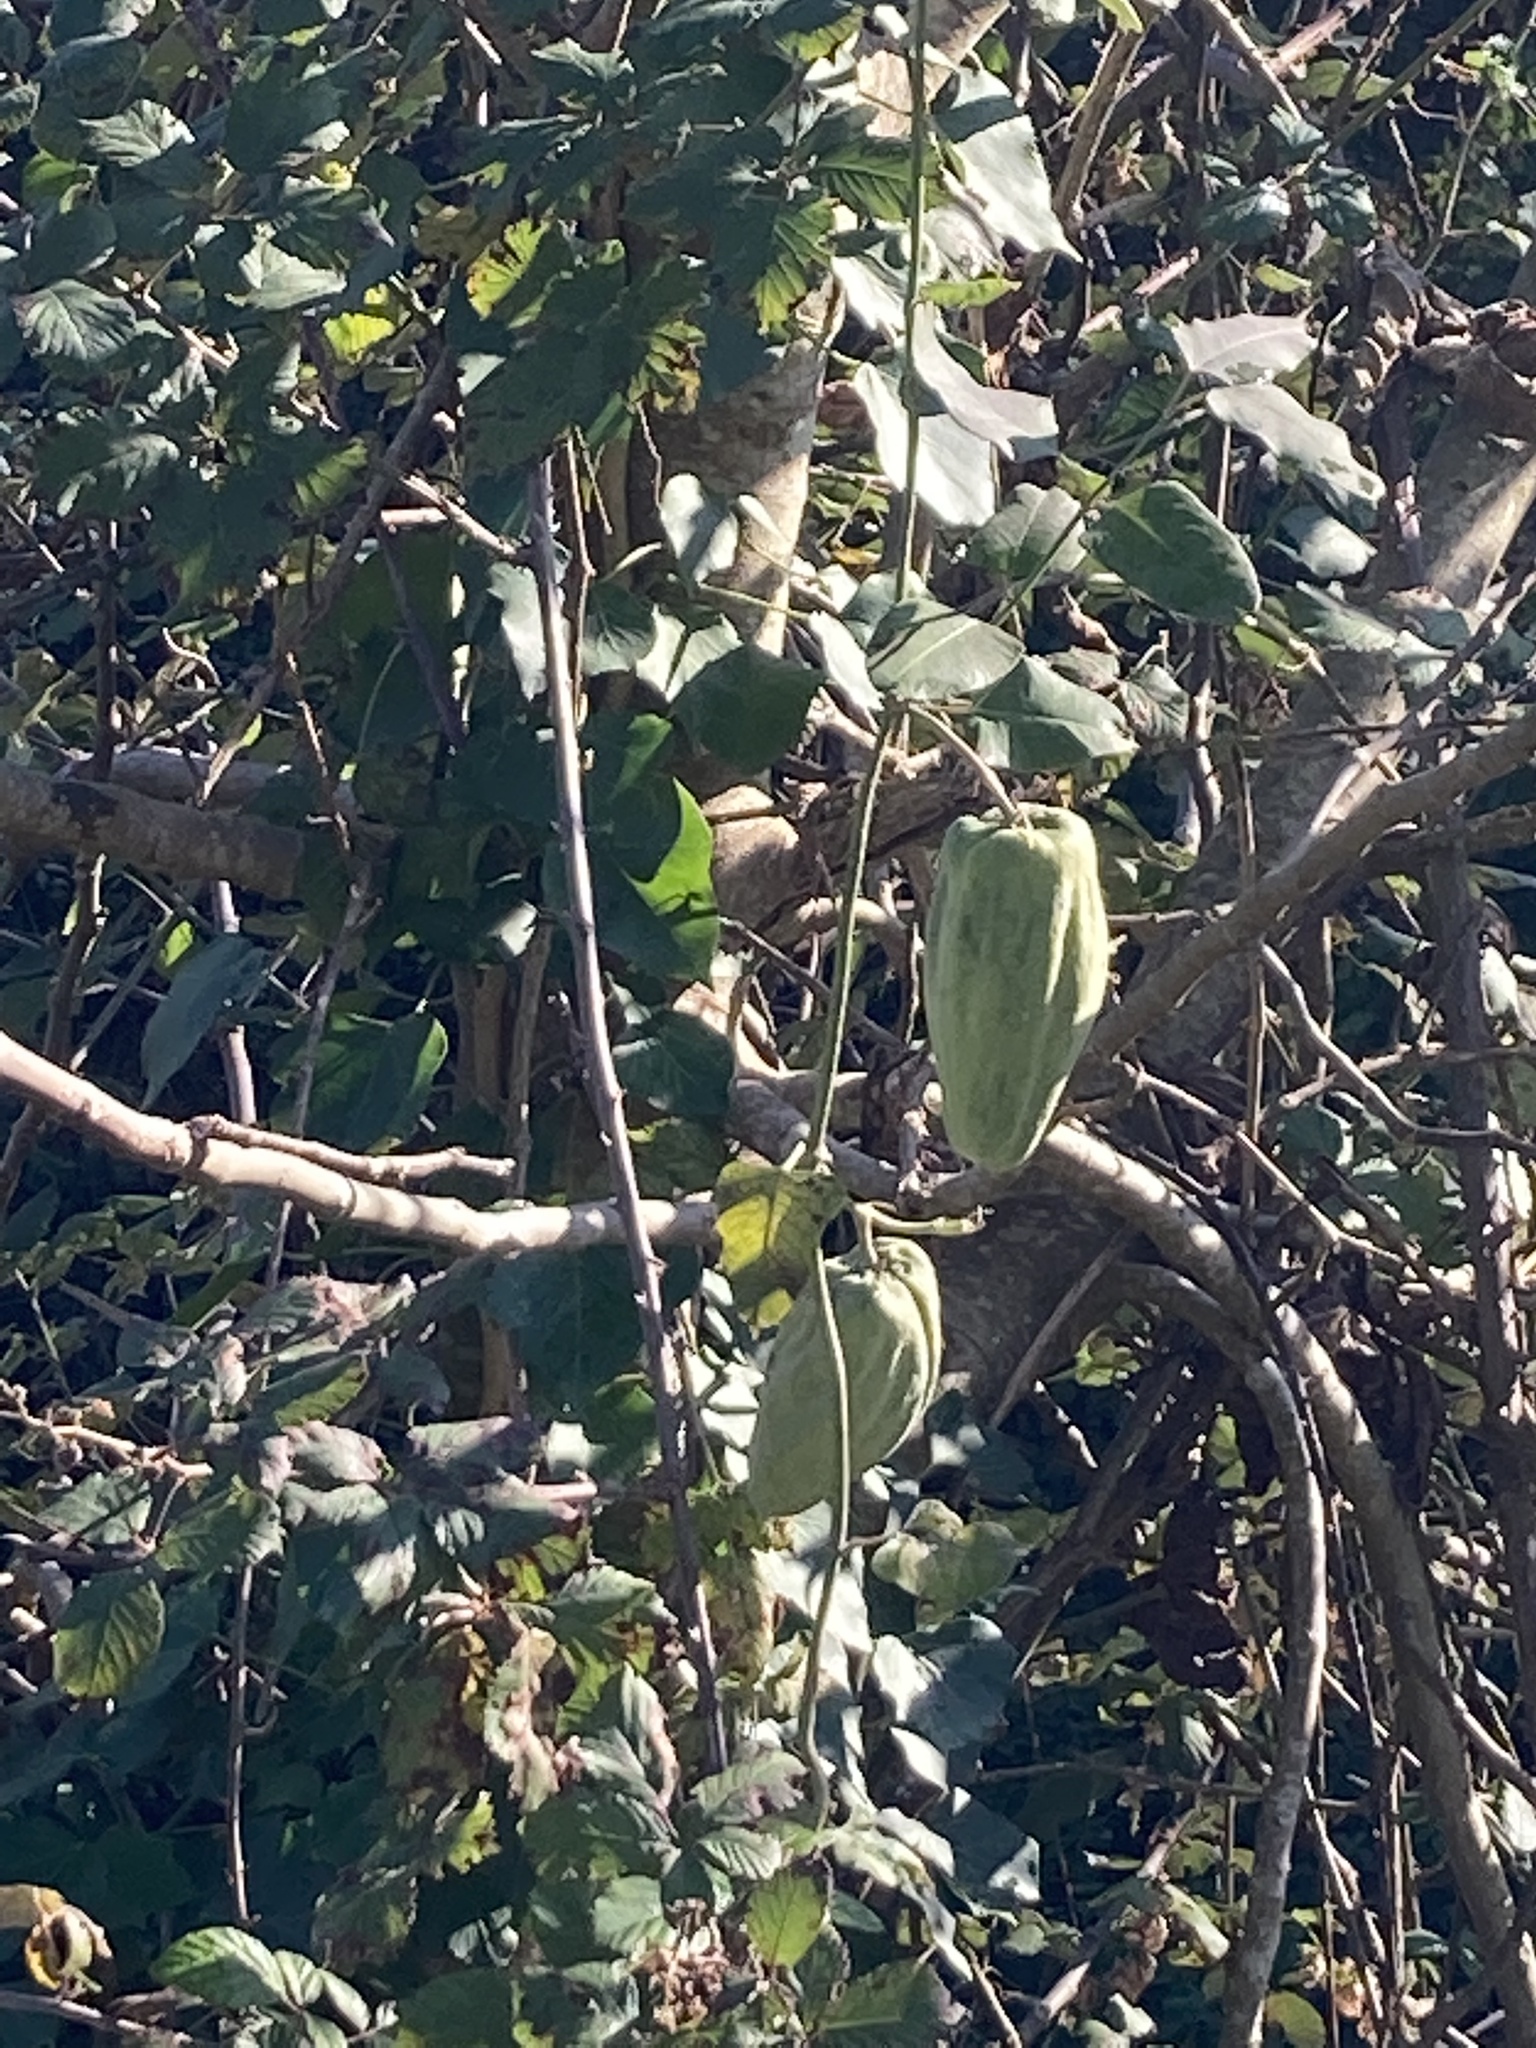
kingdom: Plantae
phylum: Tracheophyta
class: Magnoliopsida
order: Gentianales
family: Apocynaceae
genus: Araujia
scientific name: Araujia sericifera
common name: White bladderflower
